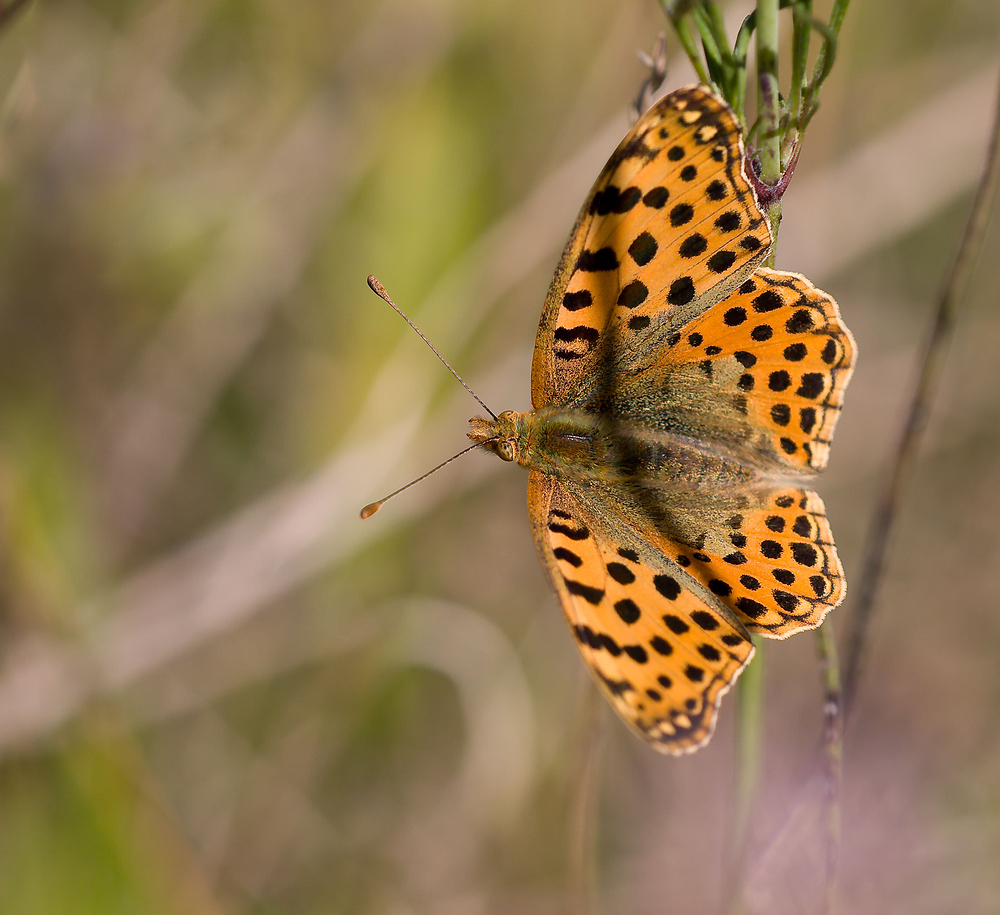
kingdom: Animalia
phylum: Arthropoda
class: Insecta
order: Lepidoptera
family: Nymphalidae
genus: Issoria
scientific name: Issoria lathonia
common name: Queen of spain fritillary
